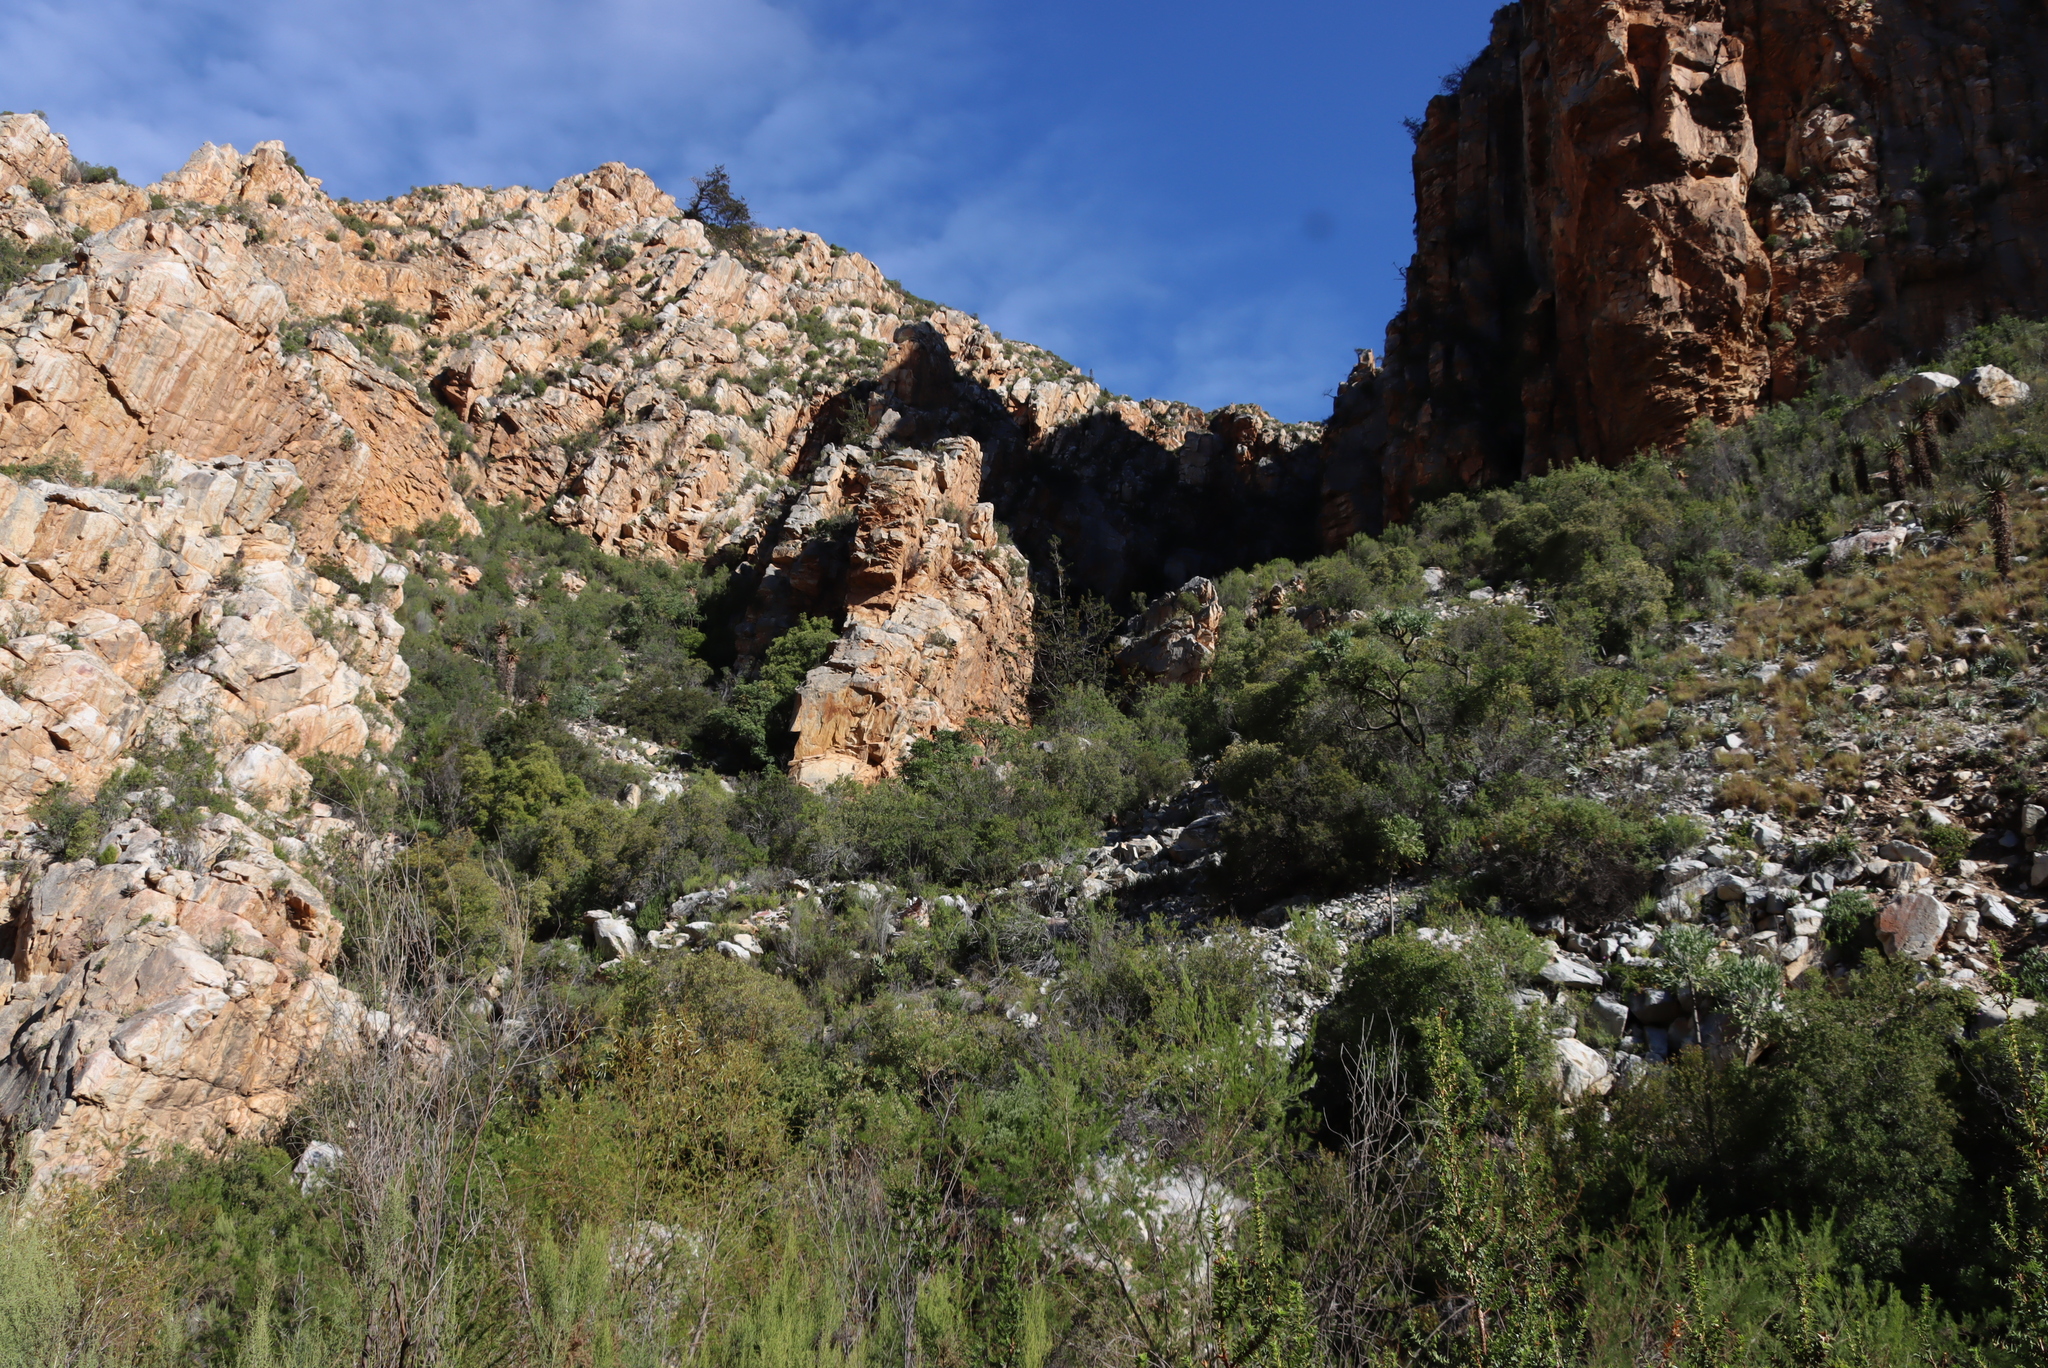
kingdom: Plantae
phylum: Tracheophyta
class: Pinopsida
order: Pinales
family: Cupressaceae
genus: Widdringtonia
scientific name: Widdringtonia schwarzii
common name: Baviaans cedar
